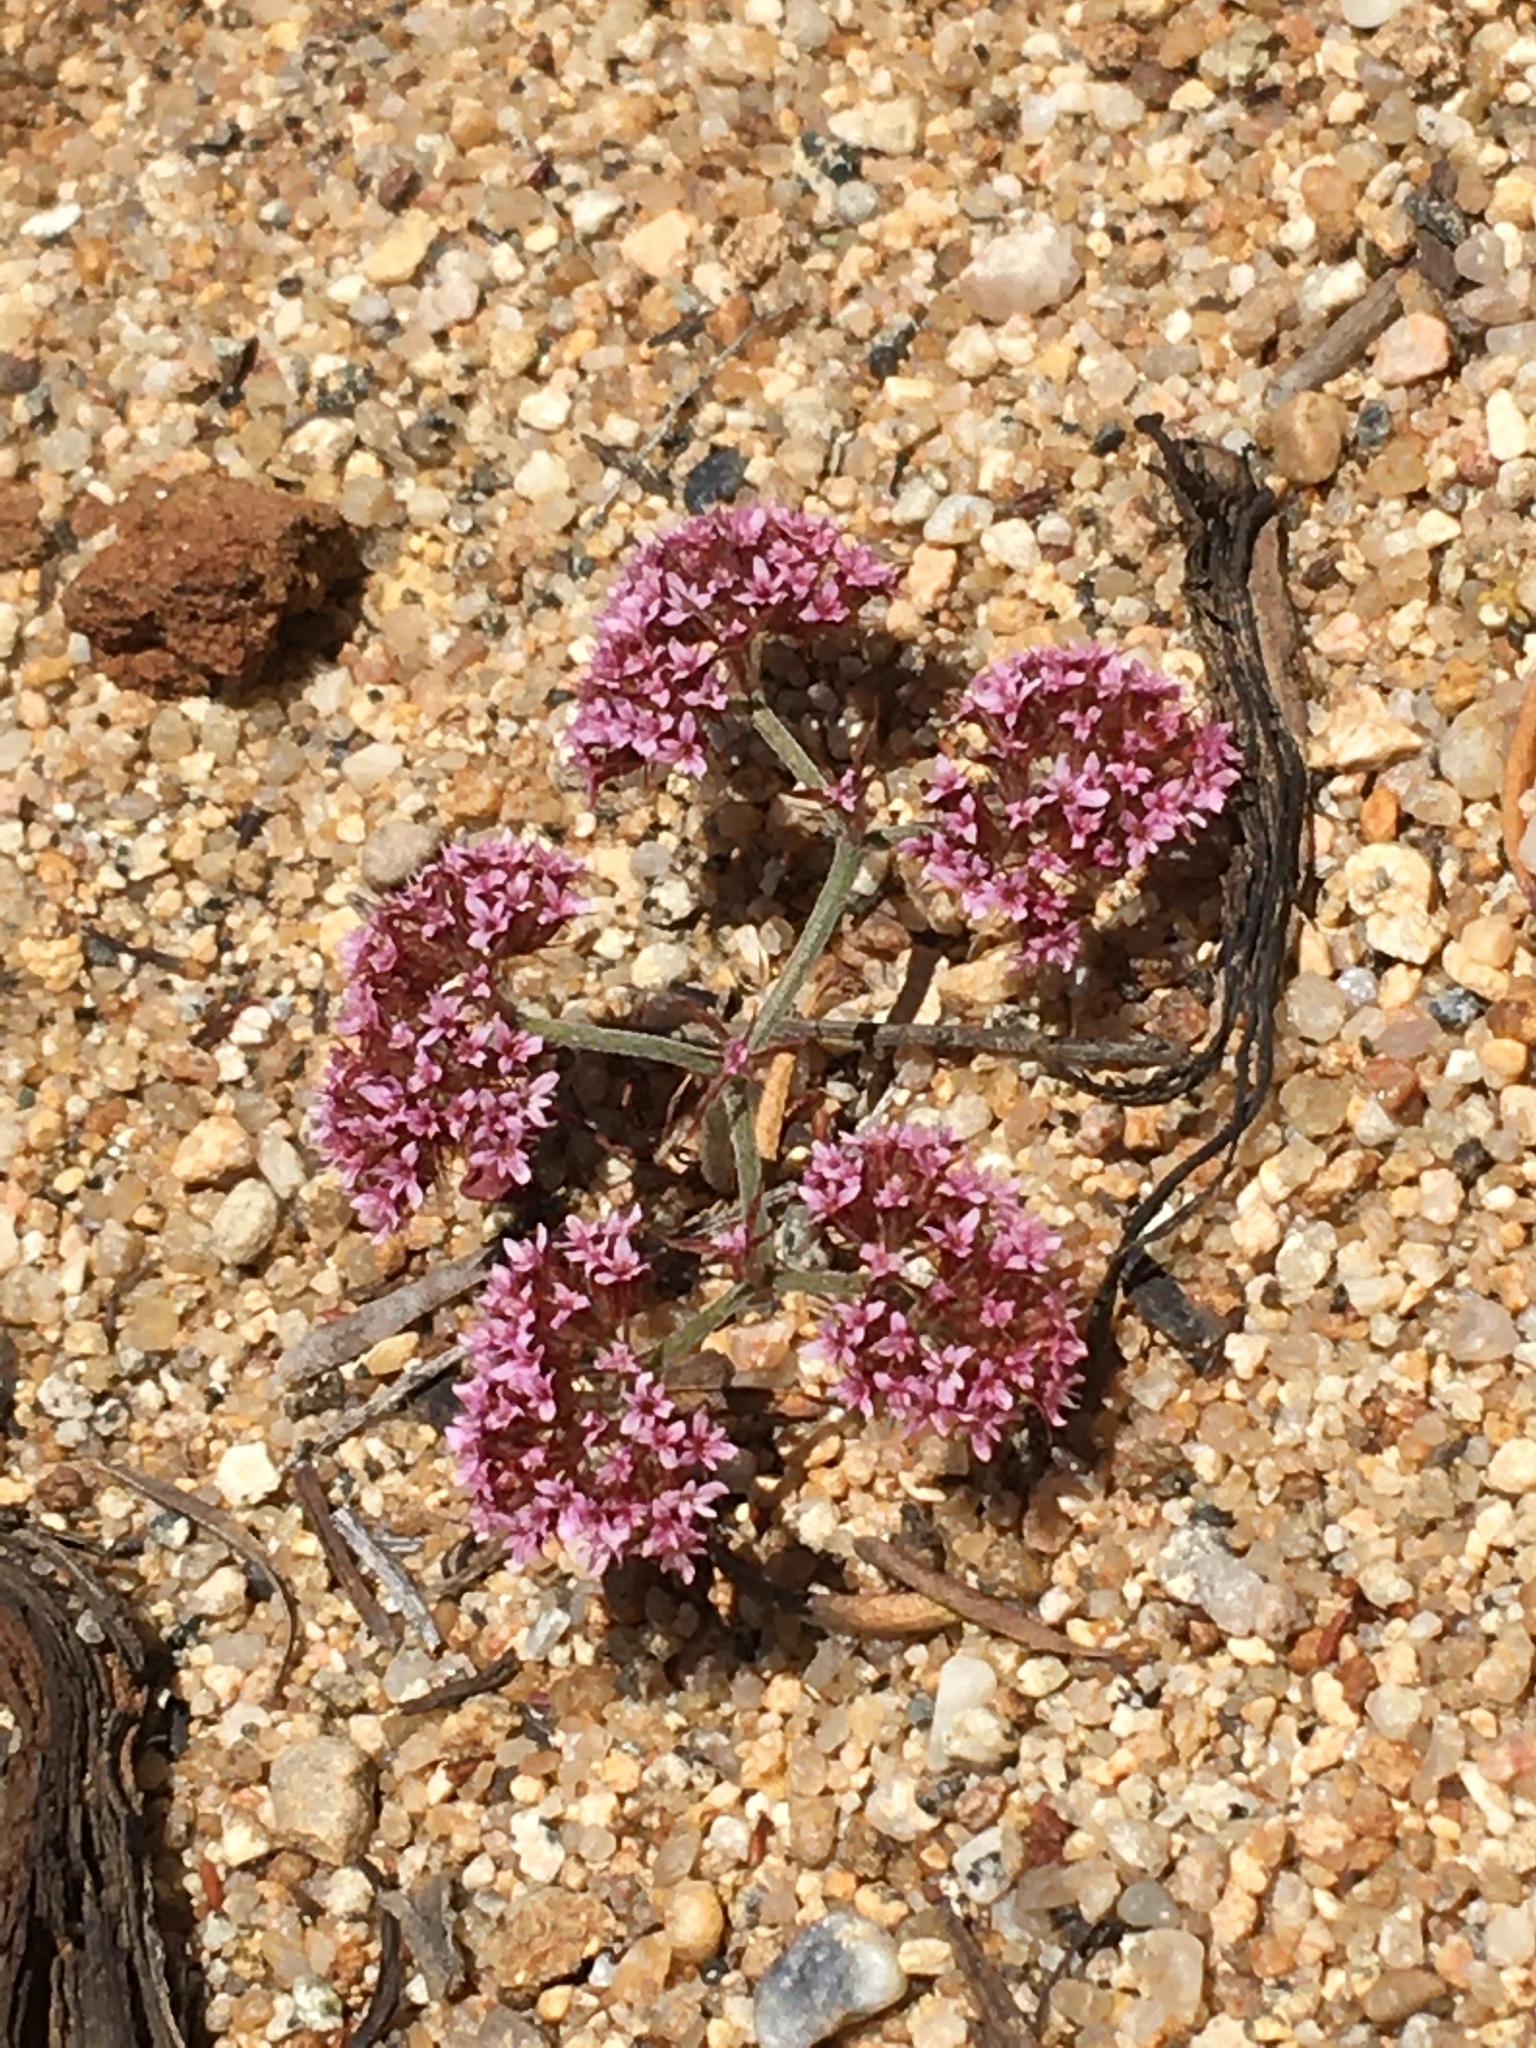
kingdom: Plantae
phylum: Tracheophyta
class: Magnoliopsida
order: Caryophyllales
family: Polygonaceae
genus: Chorizanthe
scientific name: Chorizanthe staticoides
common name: Turkish rugging
